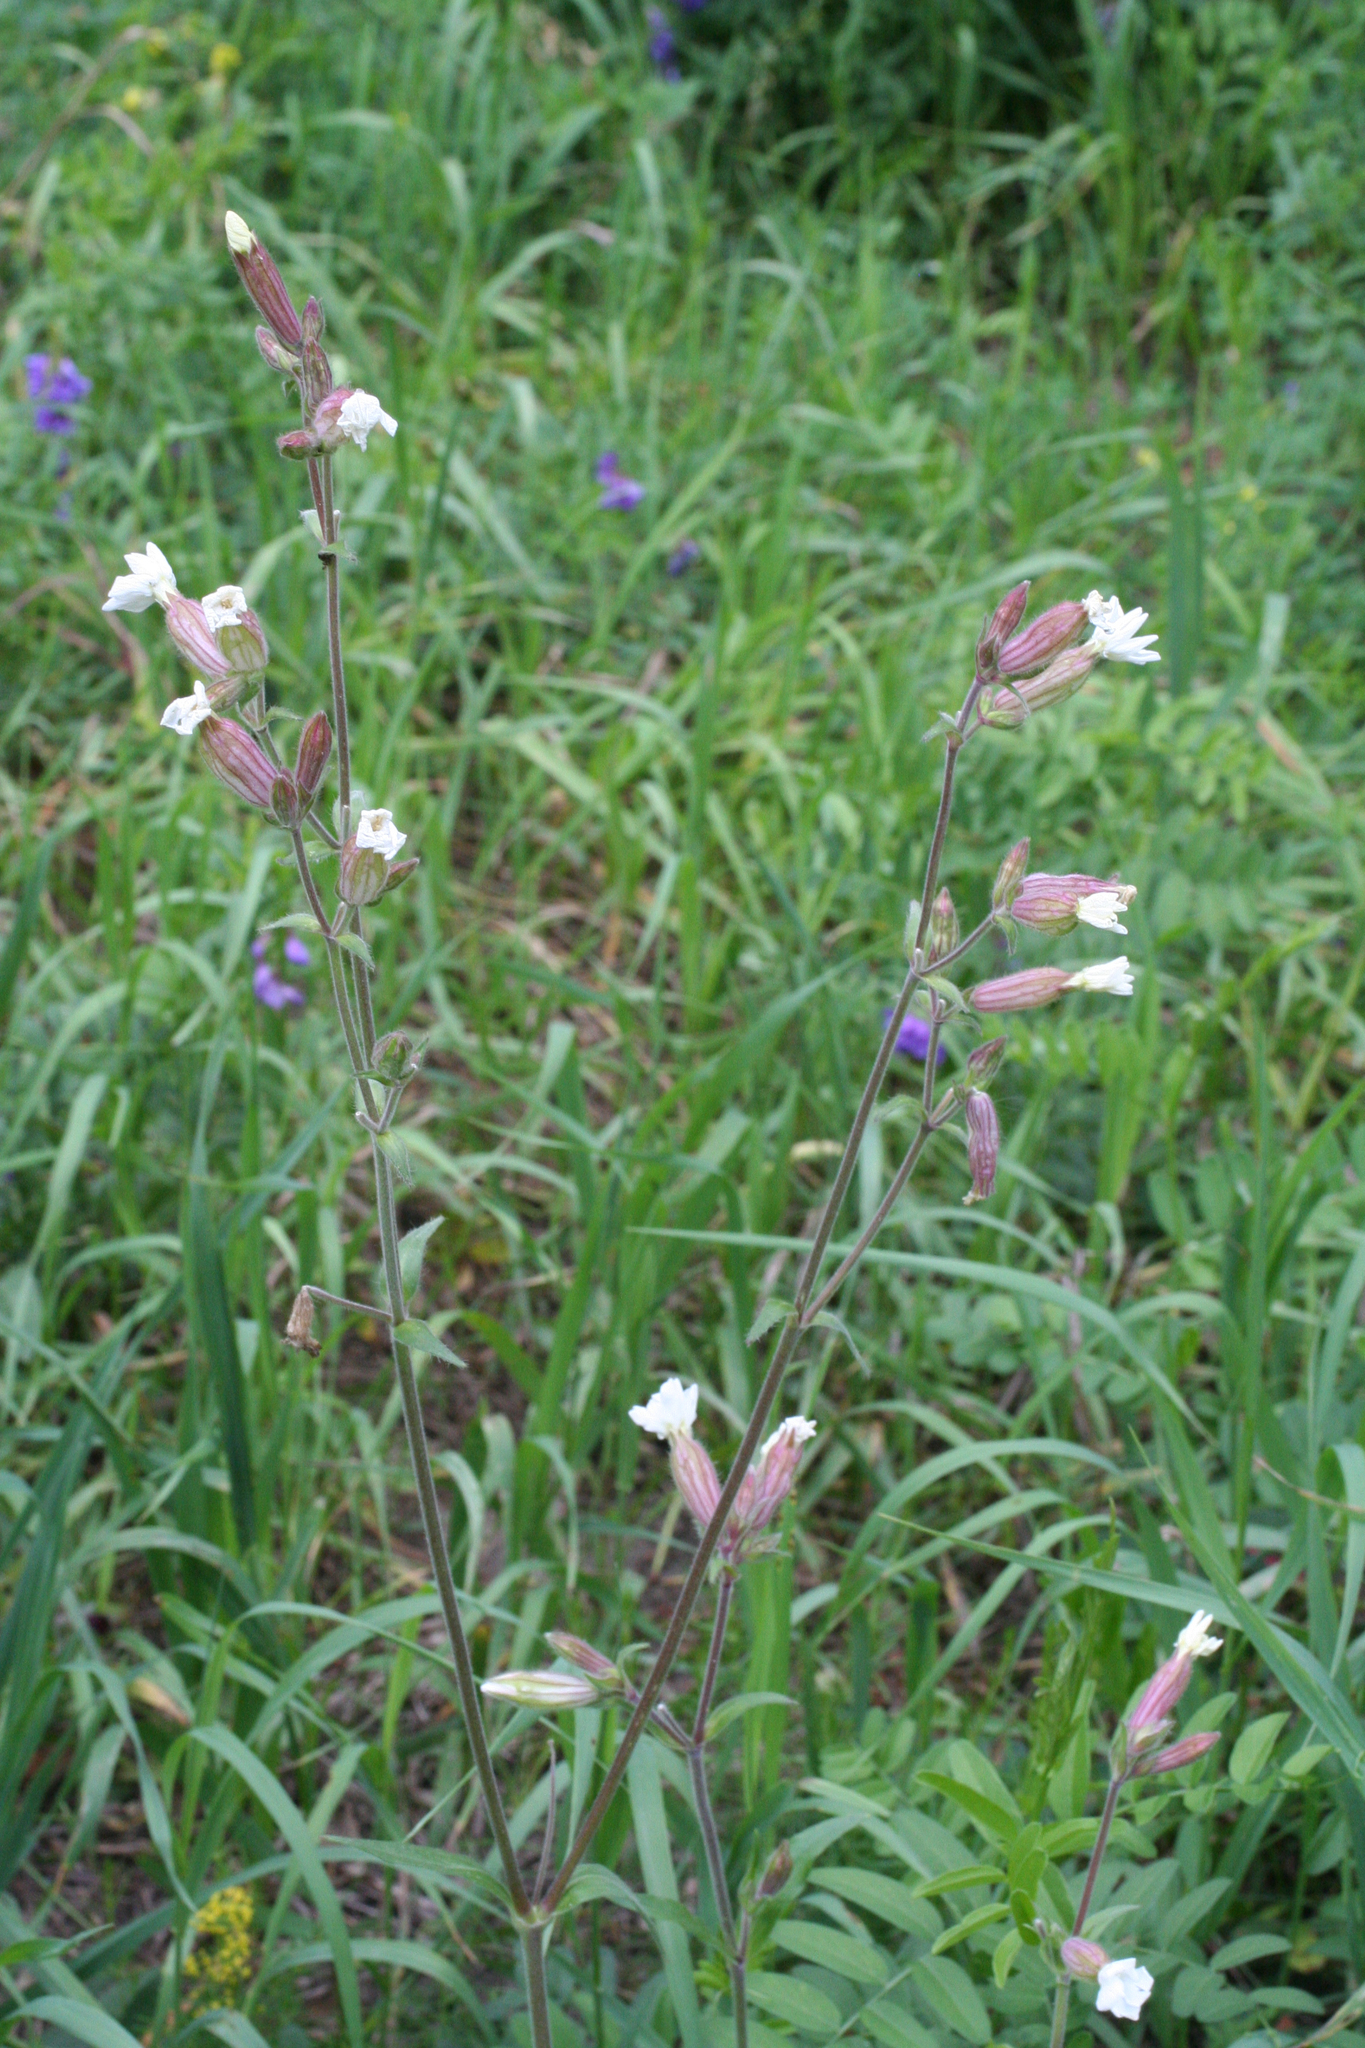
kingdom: Plantae
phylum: Tracheophyta
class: Magnoliopsida
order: Caryophyllales
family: Caryophyllaceae
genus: Silene
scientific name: Silene latifolia
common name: White campion
